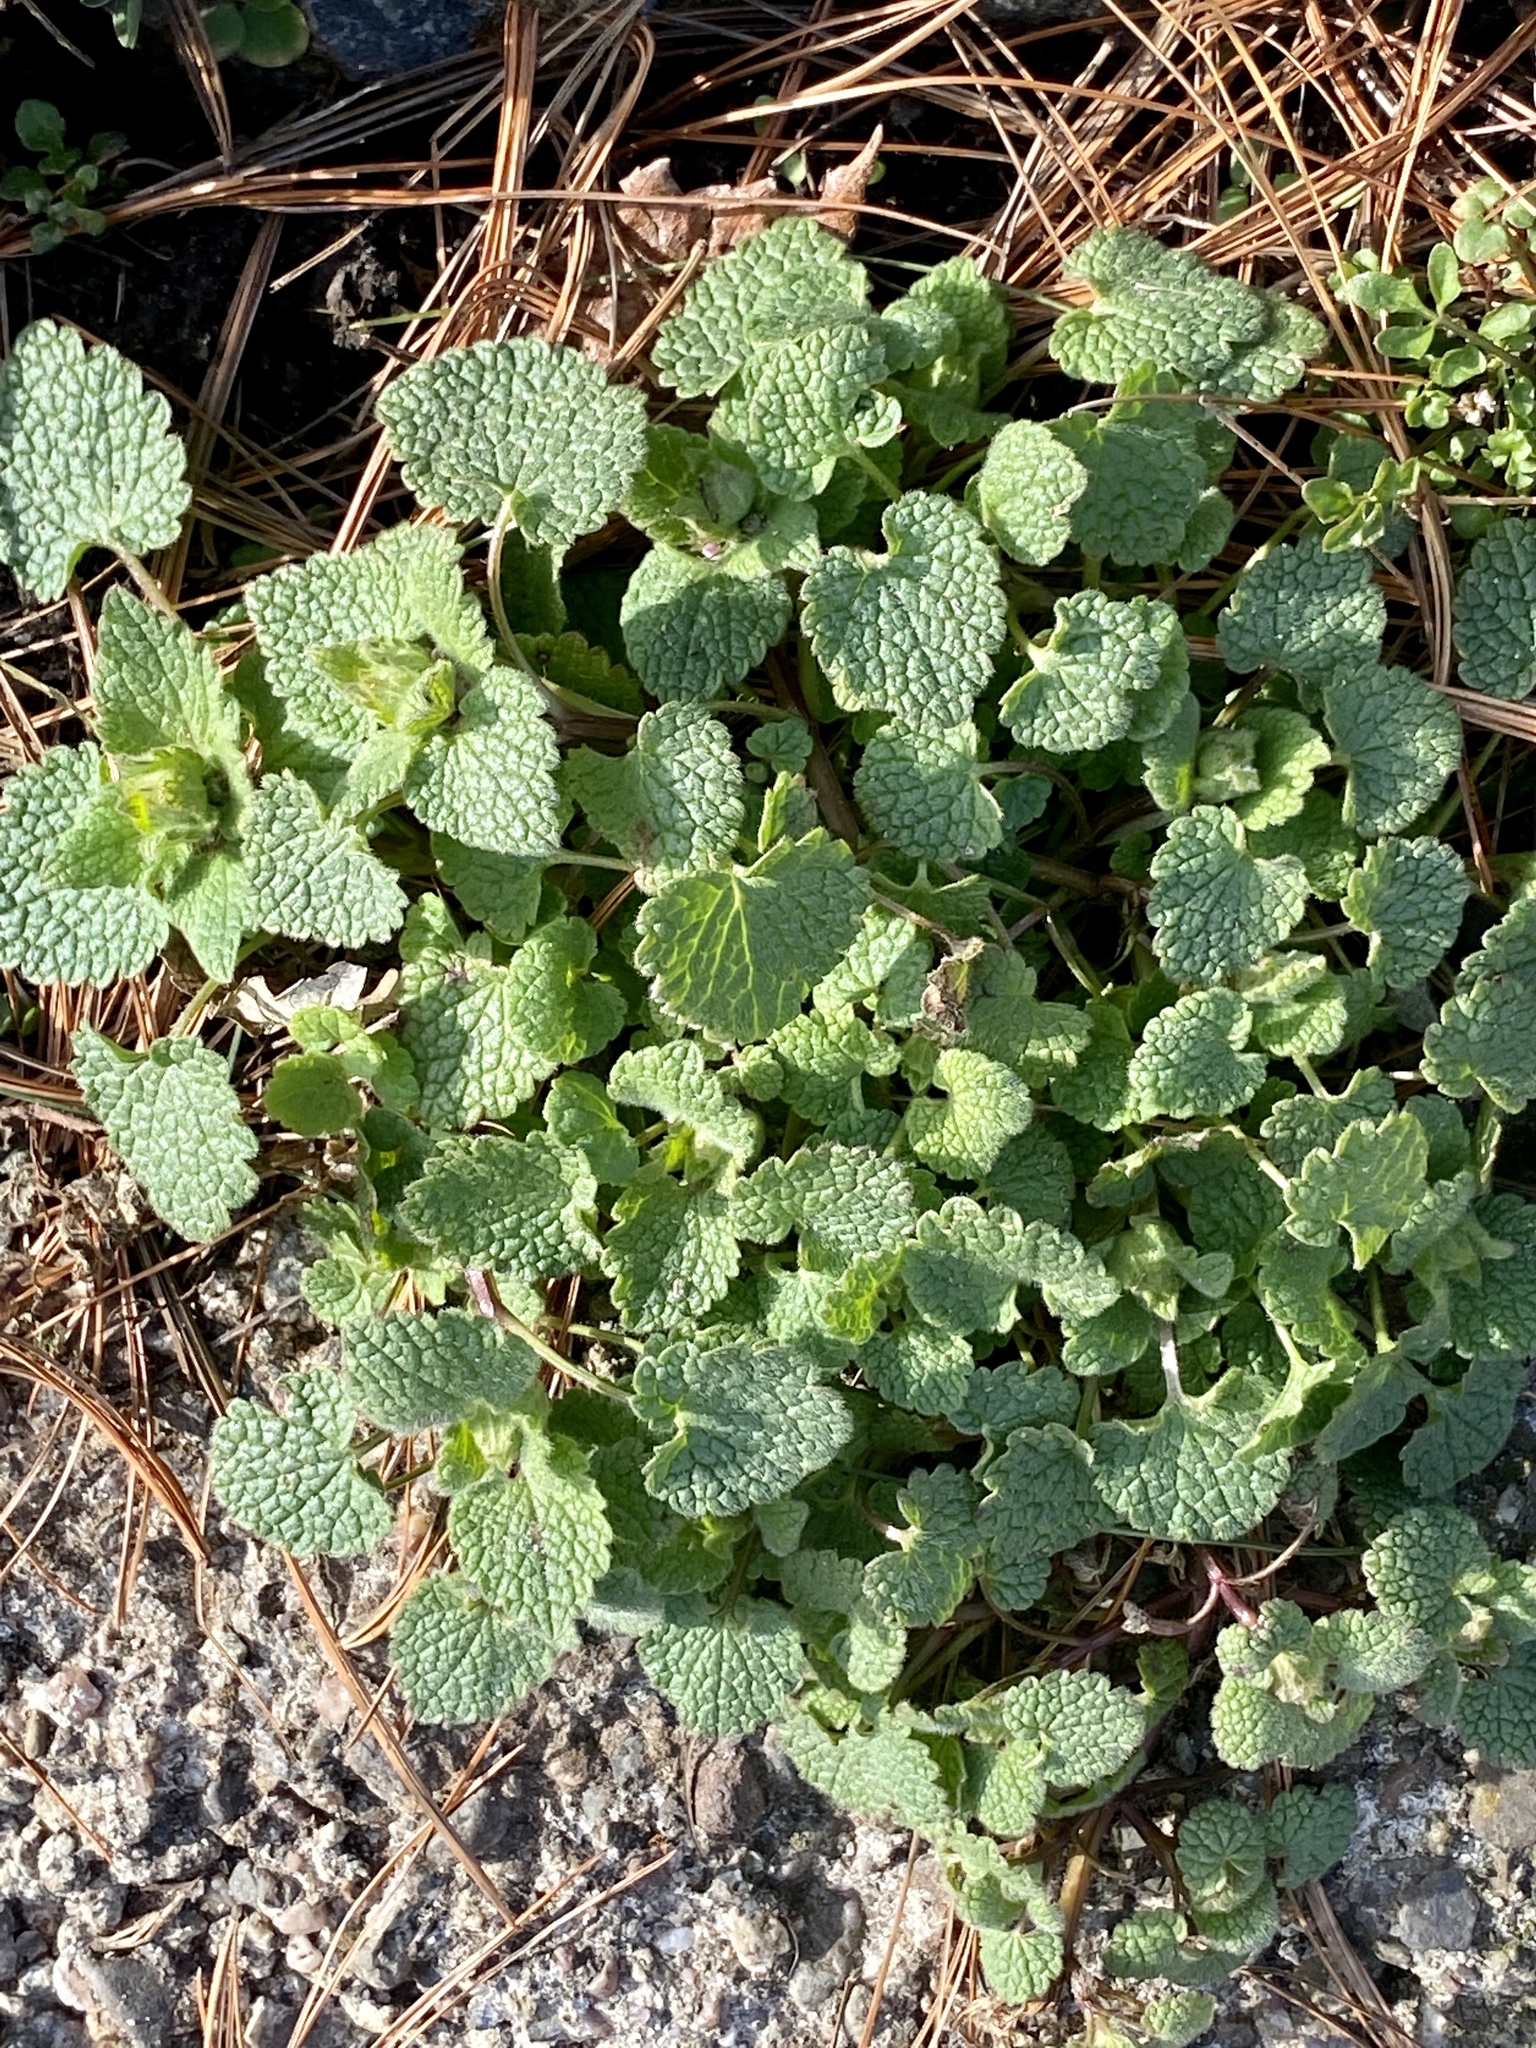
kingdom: Plantae
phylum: Tracheophyta
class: Magnoliopsida
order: Lamiales
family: Lamiaceae
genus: Lamium
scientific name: Lamium purpureum
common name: Red dead-nettle
